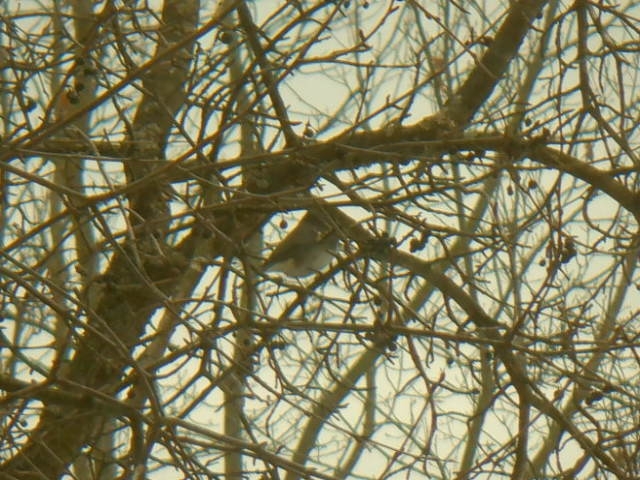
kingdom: Animalia
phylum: Chordata
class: Aves
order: Passeriformes
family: Passerellidae
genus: Junco
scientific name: Junco hyemalis
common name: Dark-eyed junco
